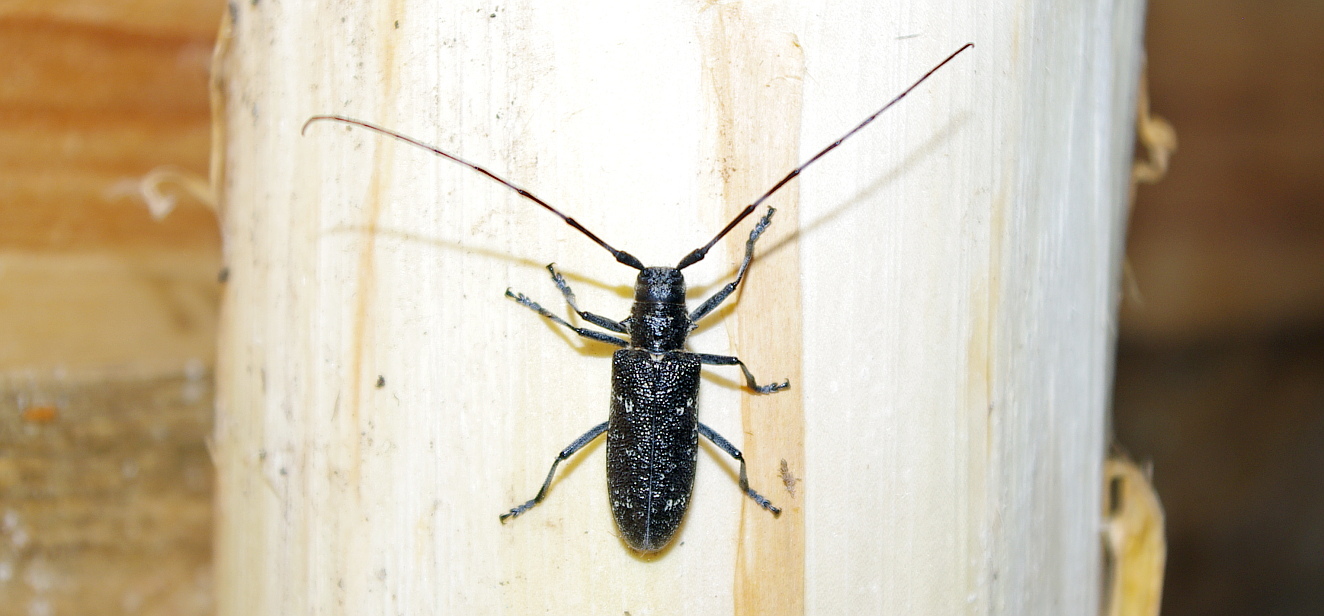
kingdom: Animalia
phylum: Arthropoda
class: Insecta
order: Coleoptera
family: Cerambycidae
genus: Monochamus
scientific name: Monochamus sutor
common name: Pine sawyer
